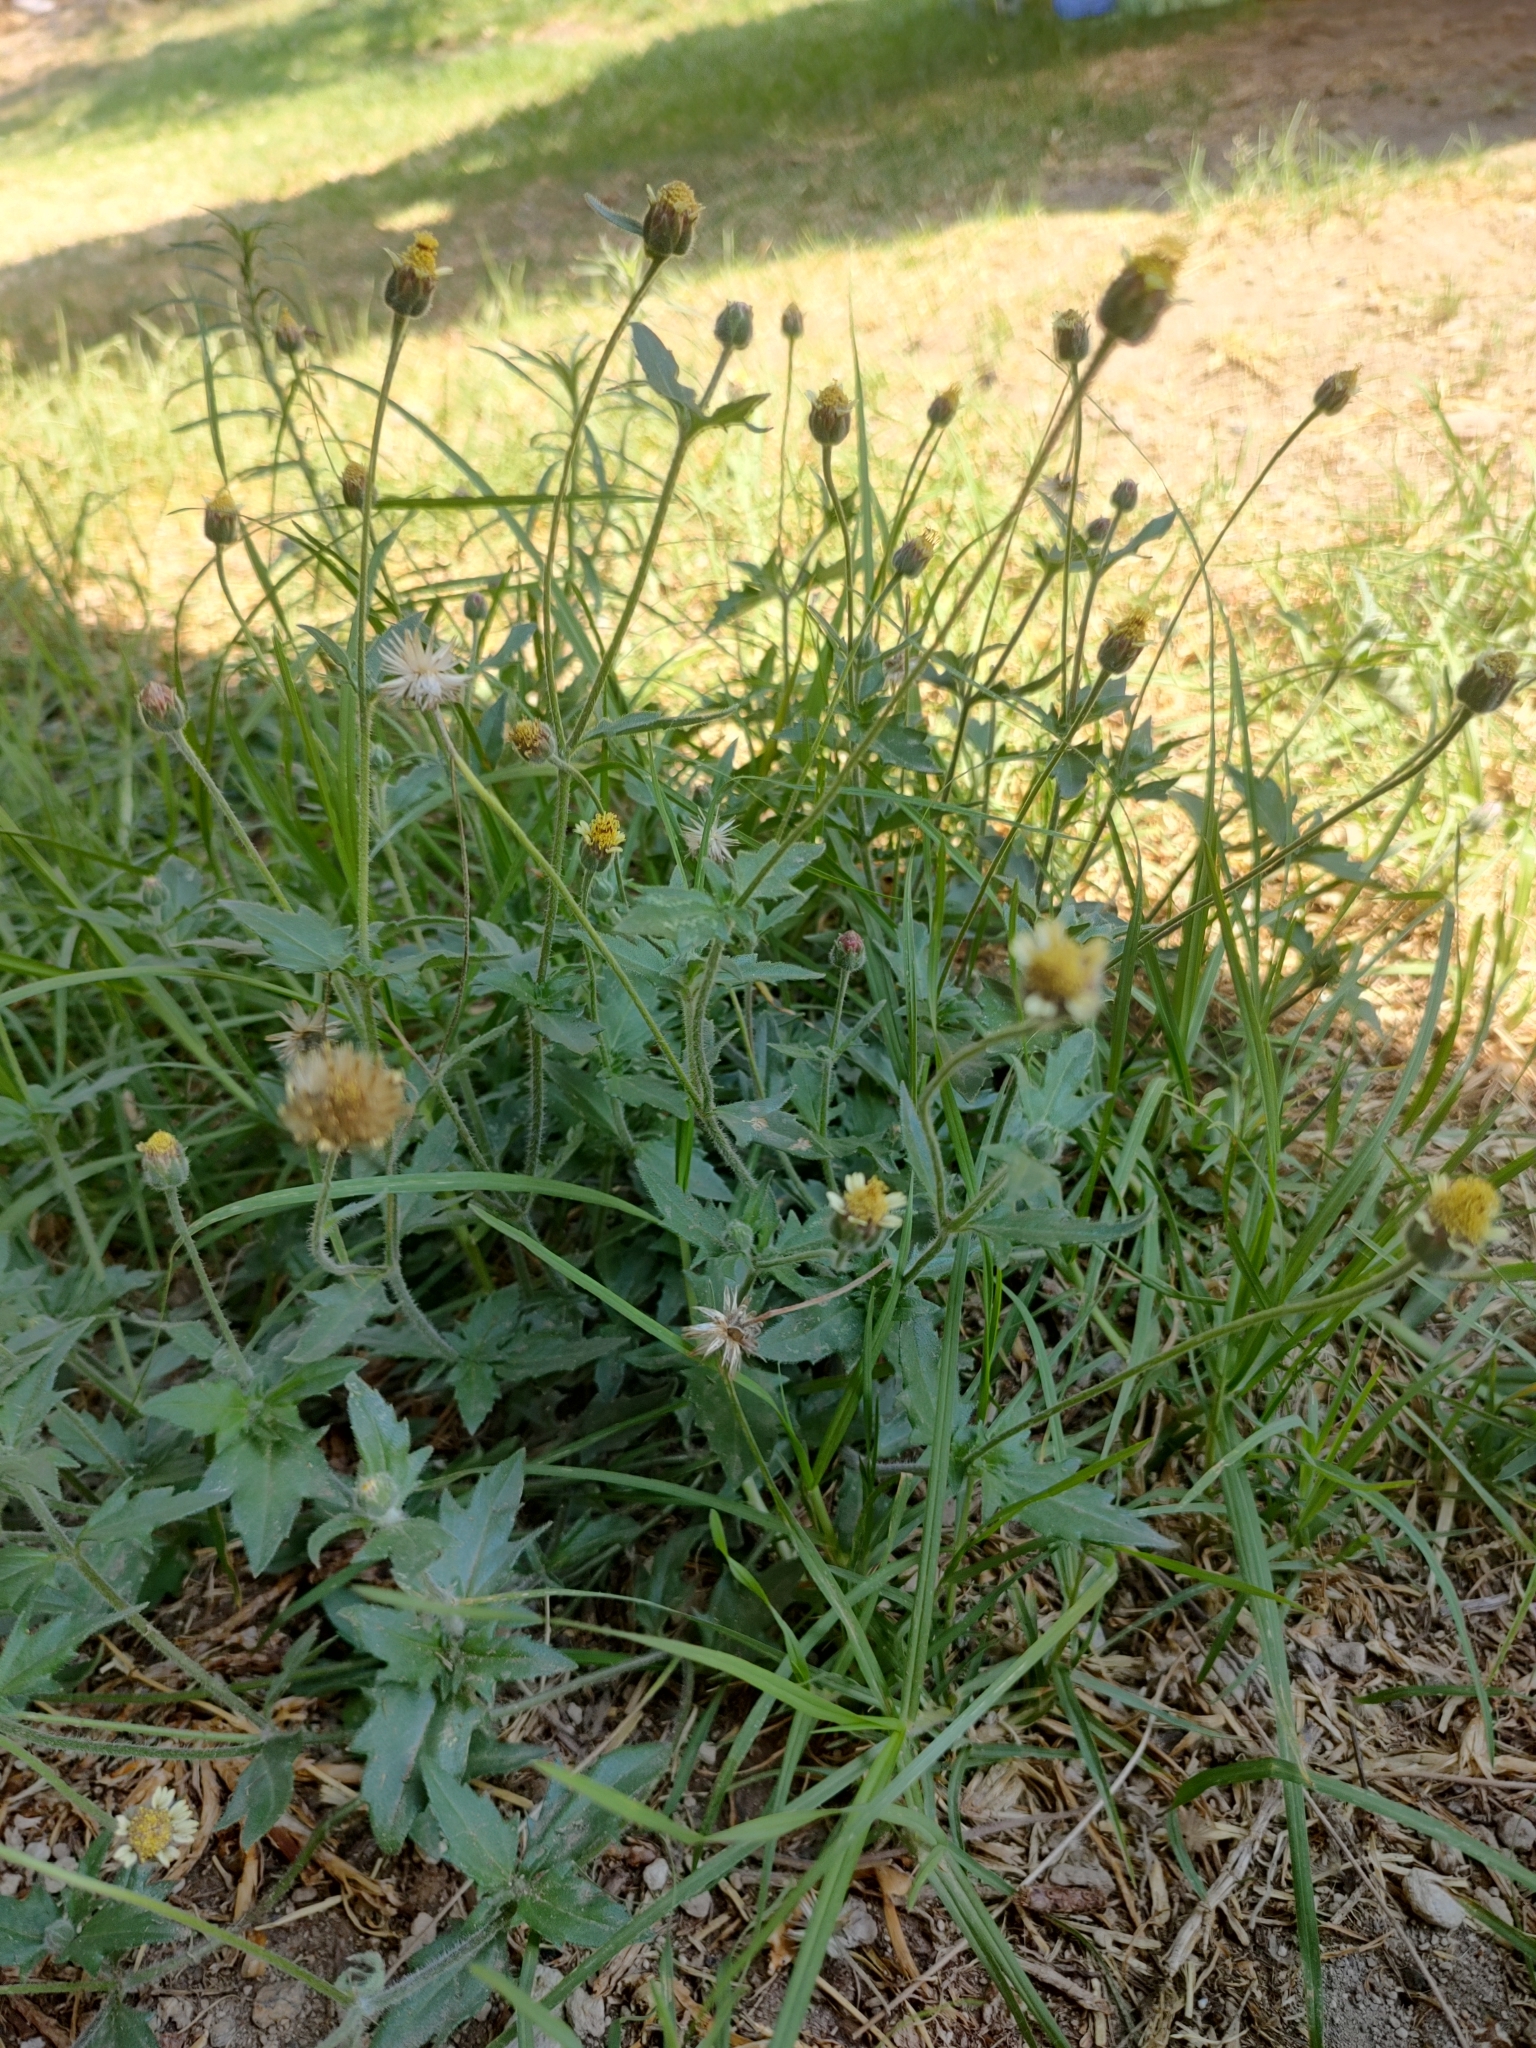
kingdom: Plantae
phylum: Tracheophyta
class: Magnoliopsida
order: Asterales
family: Asteraceae
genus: Tridax
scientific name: Tridax procumbens
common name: Coatbuttons
